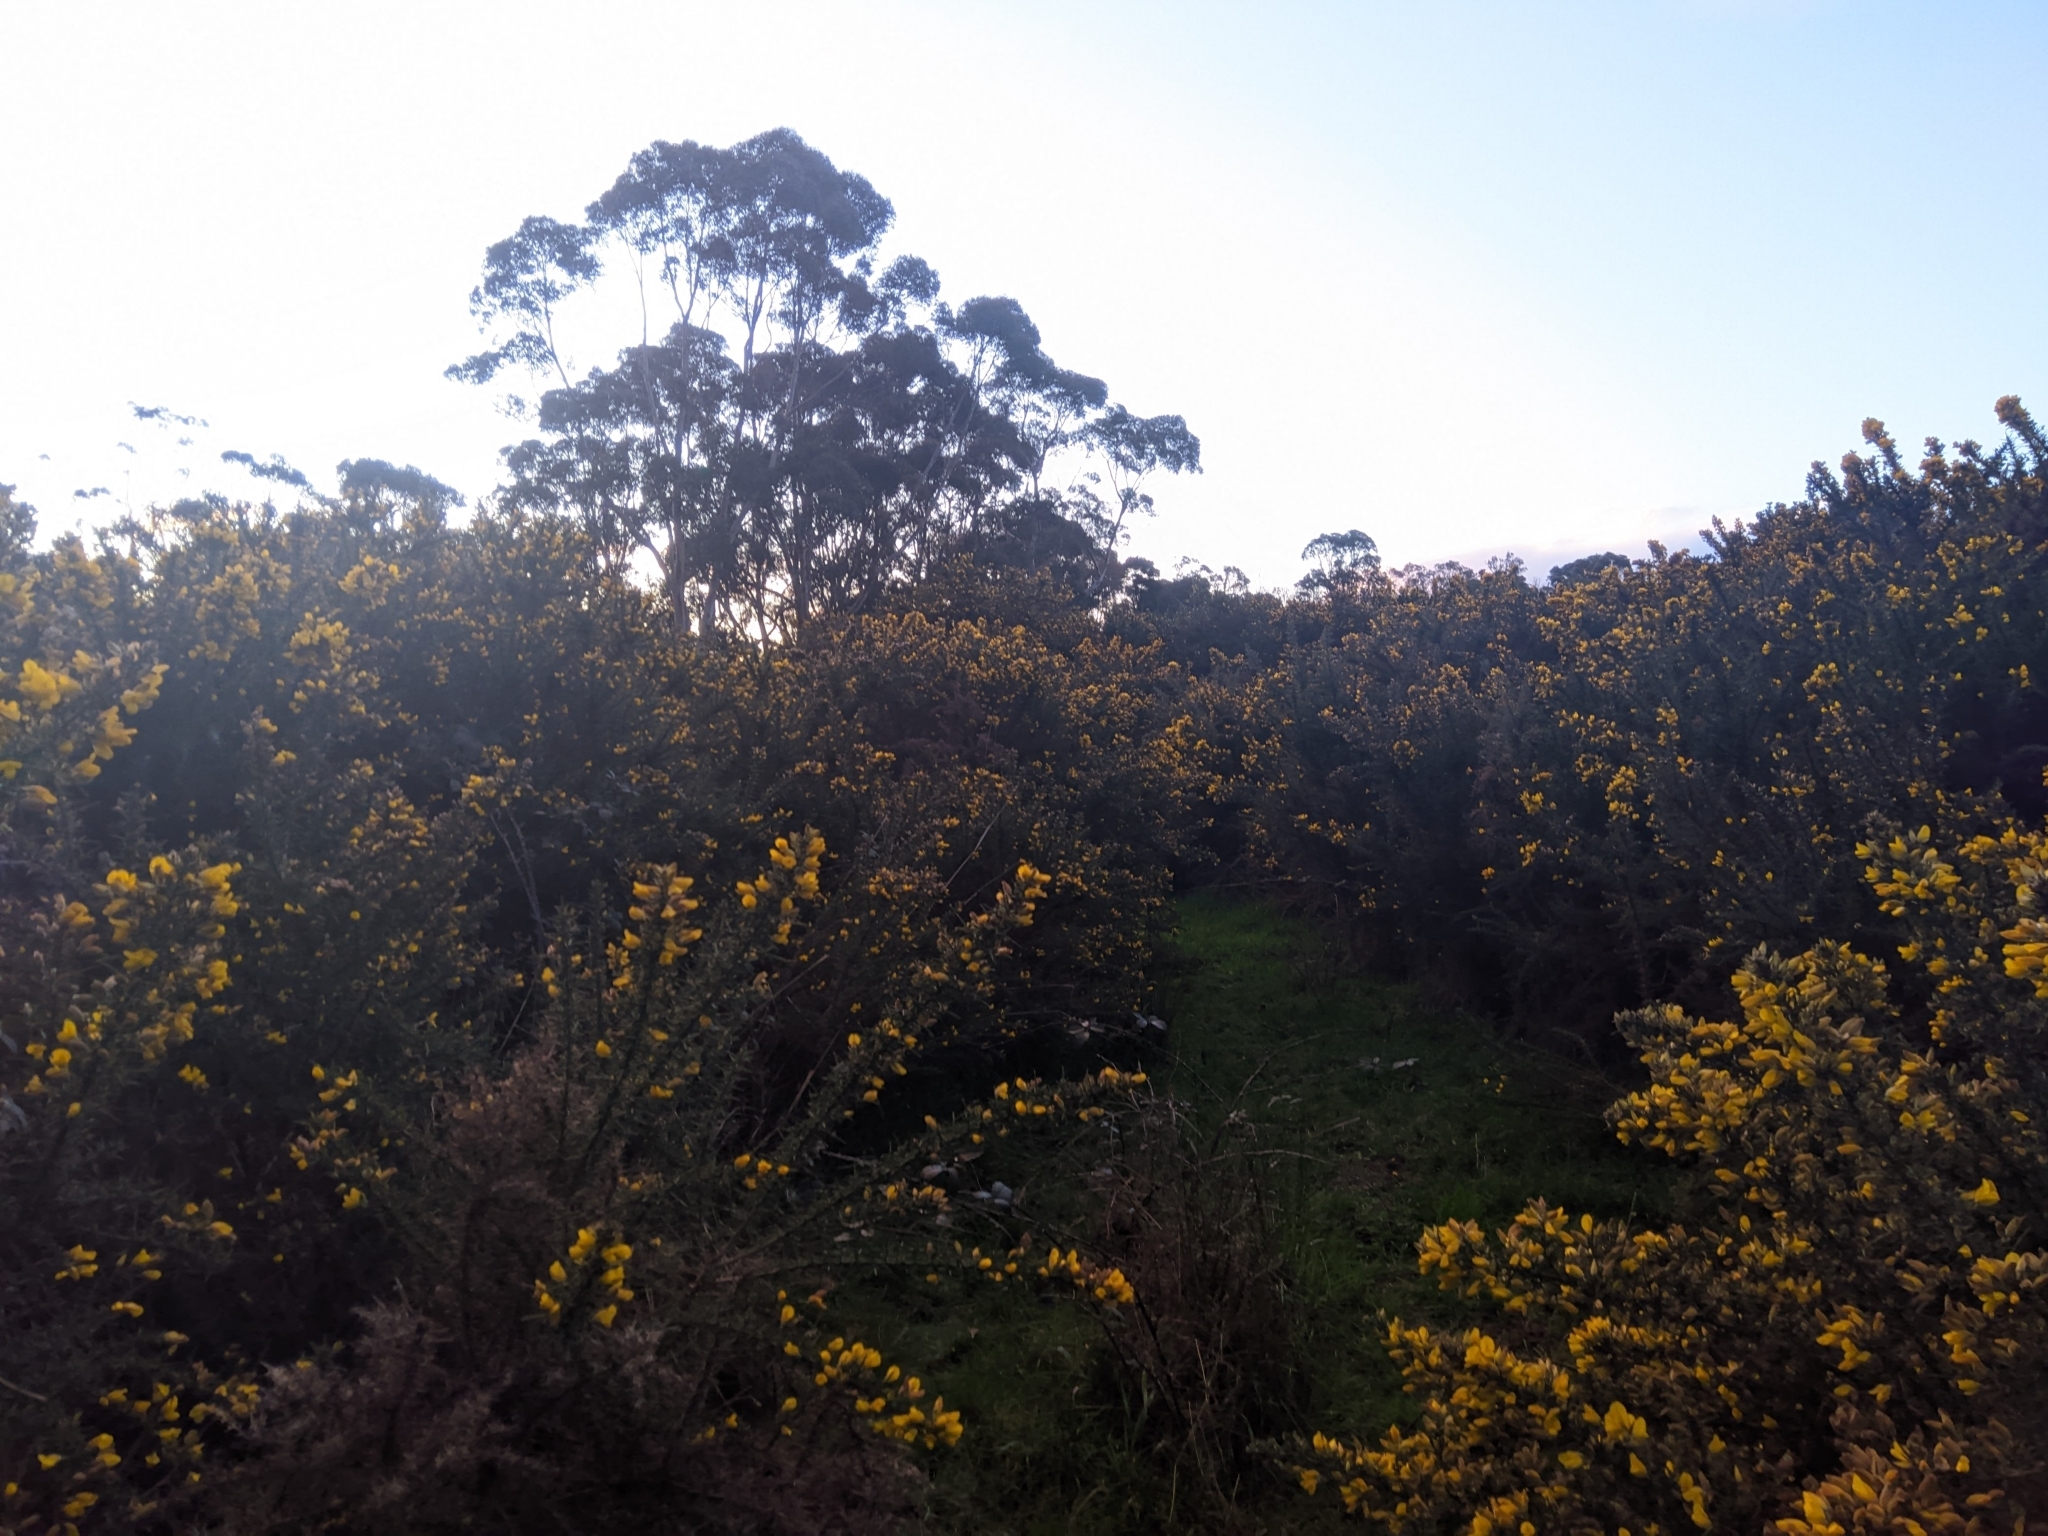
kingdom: Plantae
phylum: Tracheophyta
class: Magnoliopsida
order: Fabales
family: Fabaceae
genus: Ulex
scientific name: Ulex europaeus
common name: Common gorse
